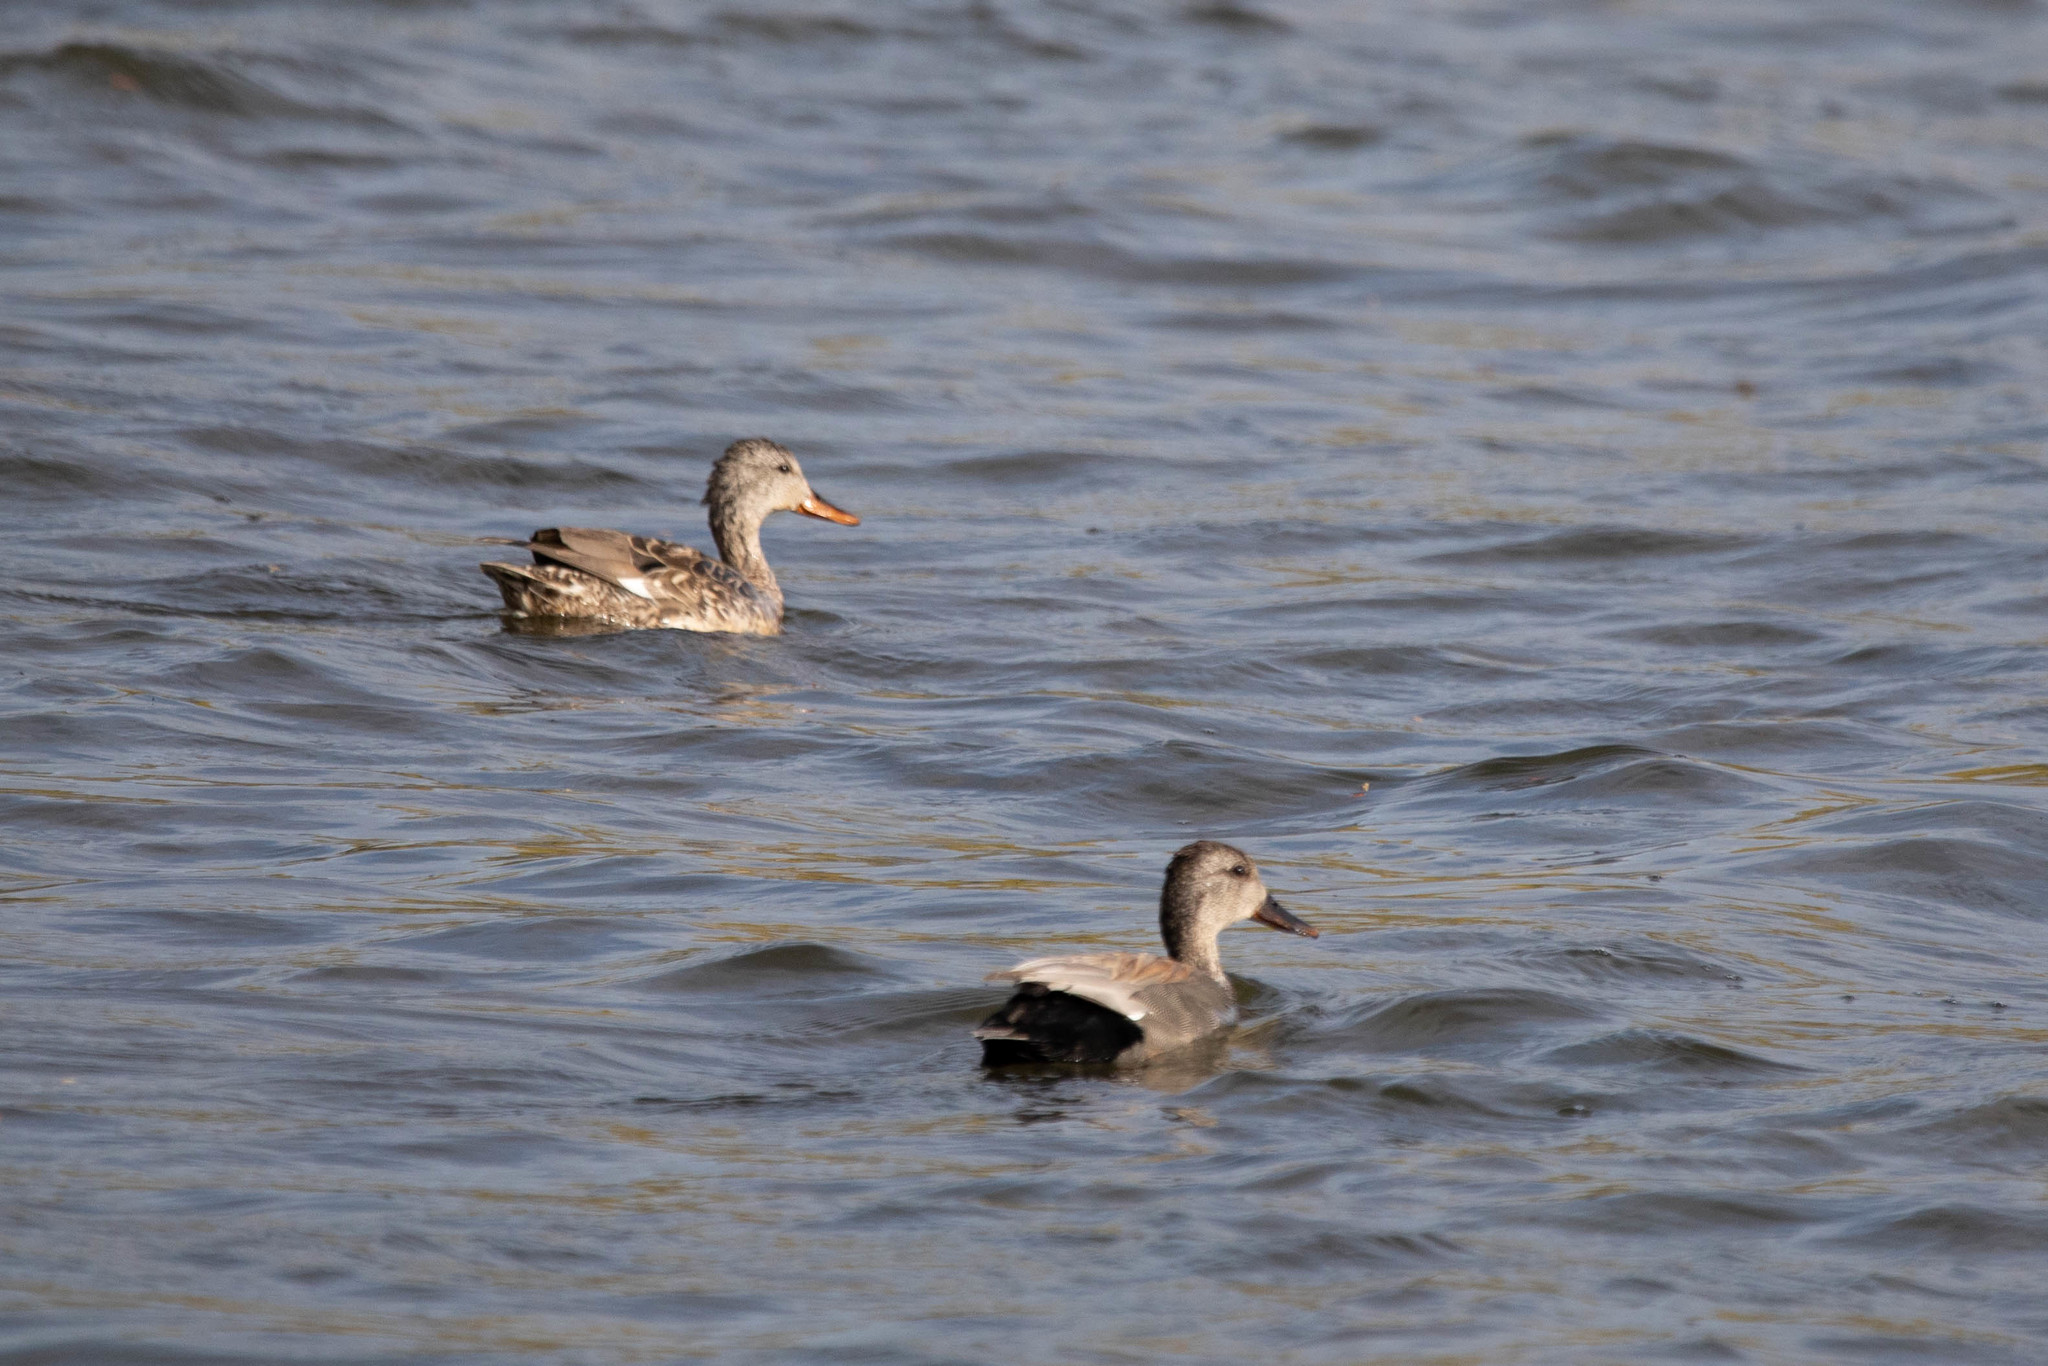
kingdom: Animalia
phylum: Chordata
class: Aves
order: Anseriformes
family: Anatidae
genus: Mareca
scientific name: Mareca strepera
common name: Gadwall
